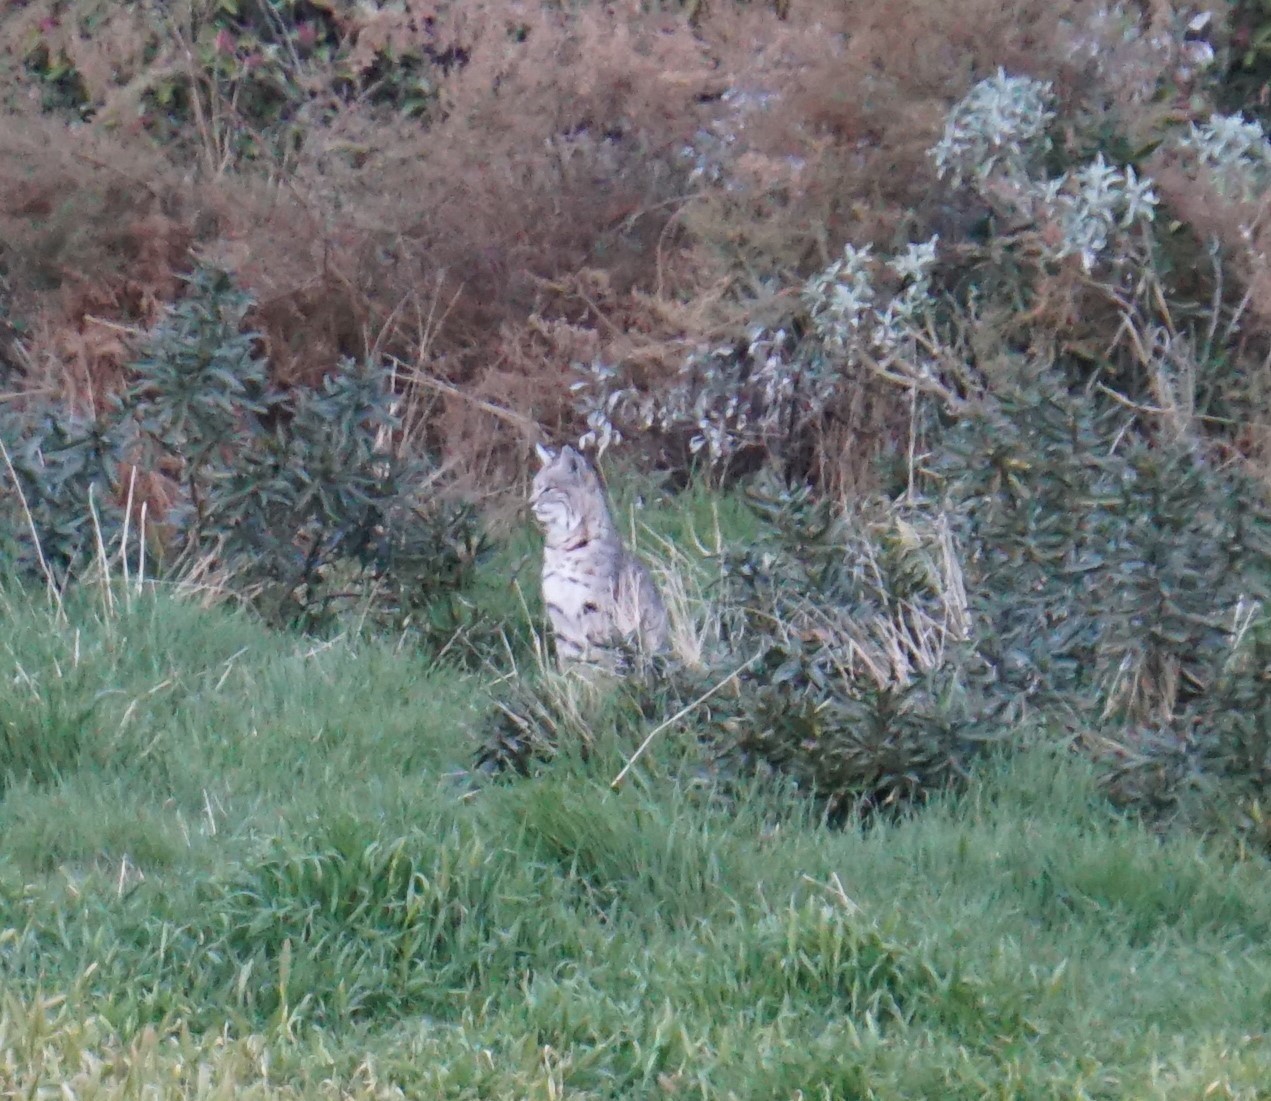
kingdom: Animalia
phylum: Chordata
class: Mammalia
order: Carnivora
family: Felidae
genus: Lynx
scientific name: Lynx rufus
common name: Bobcat
